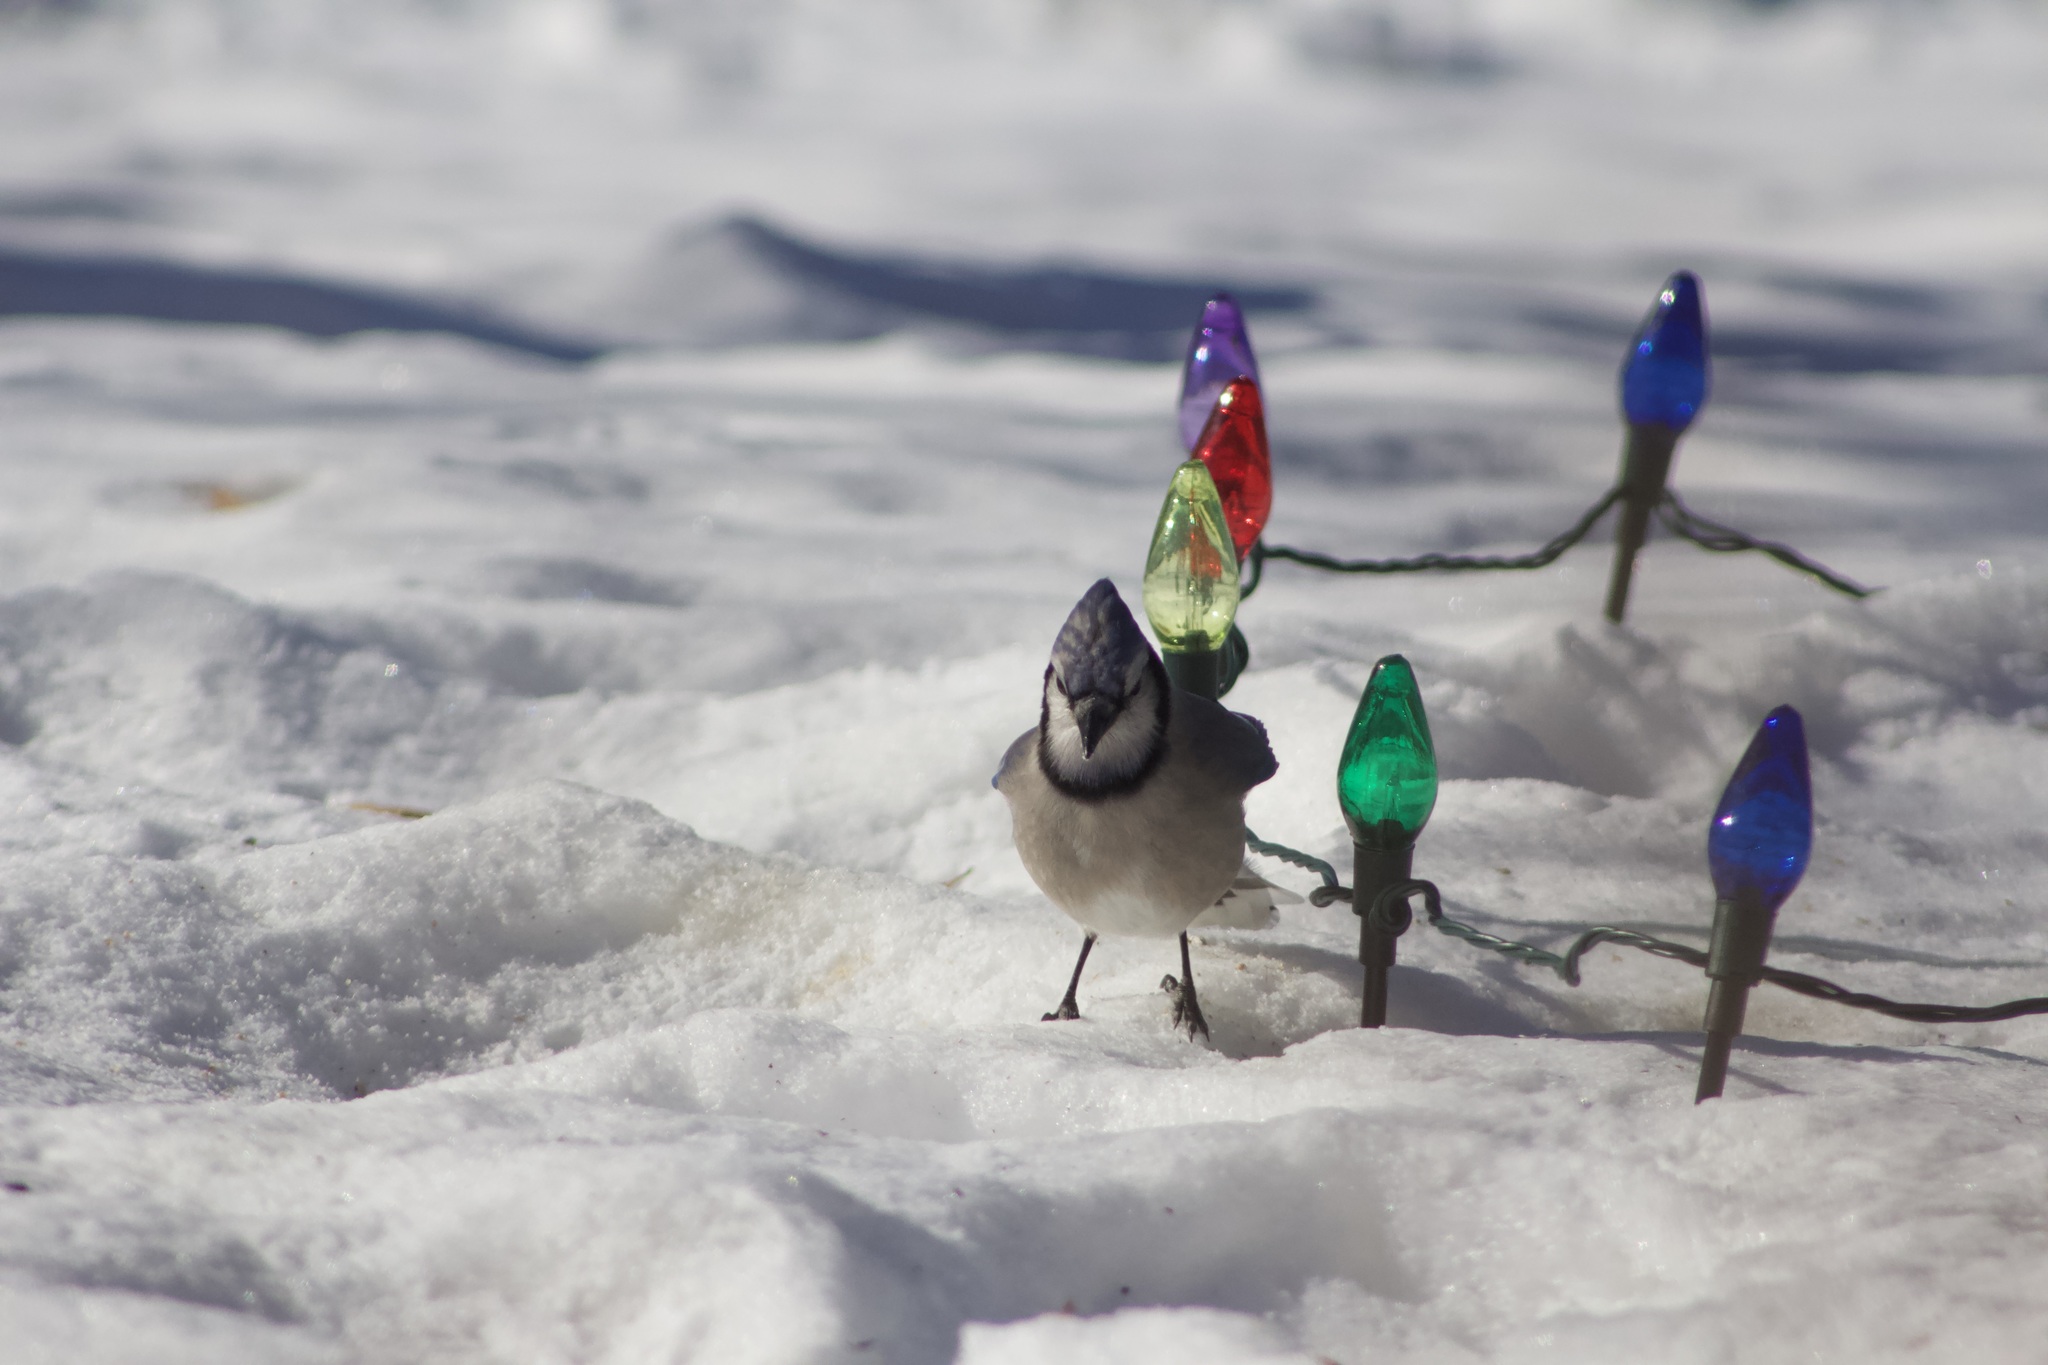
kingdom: Animalia
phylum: Chordata
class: Aves
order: Passeriformes
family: Corvidae
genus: Cyanocitta
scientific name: Cyanocitta cristata
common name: Blue jay
